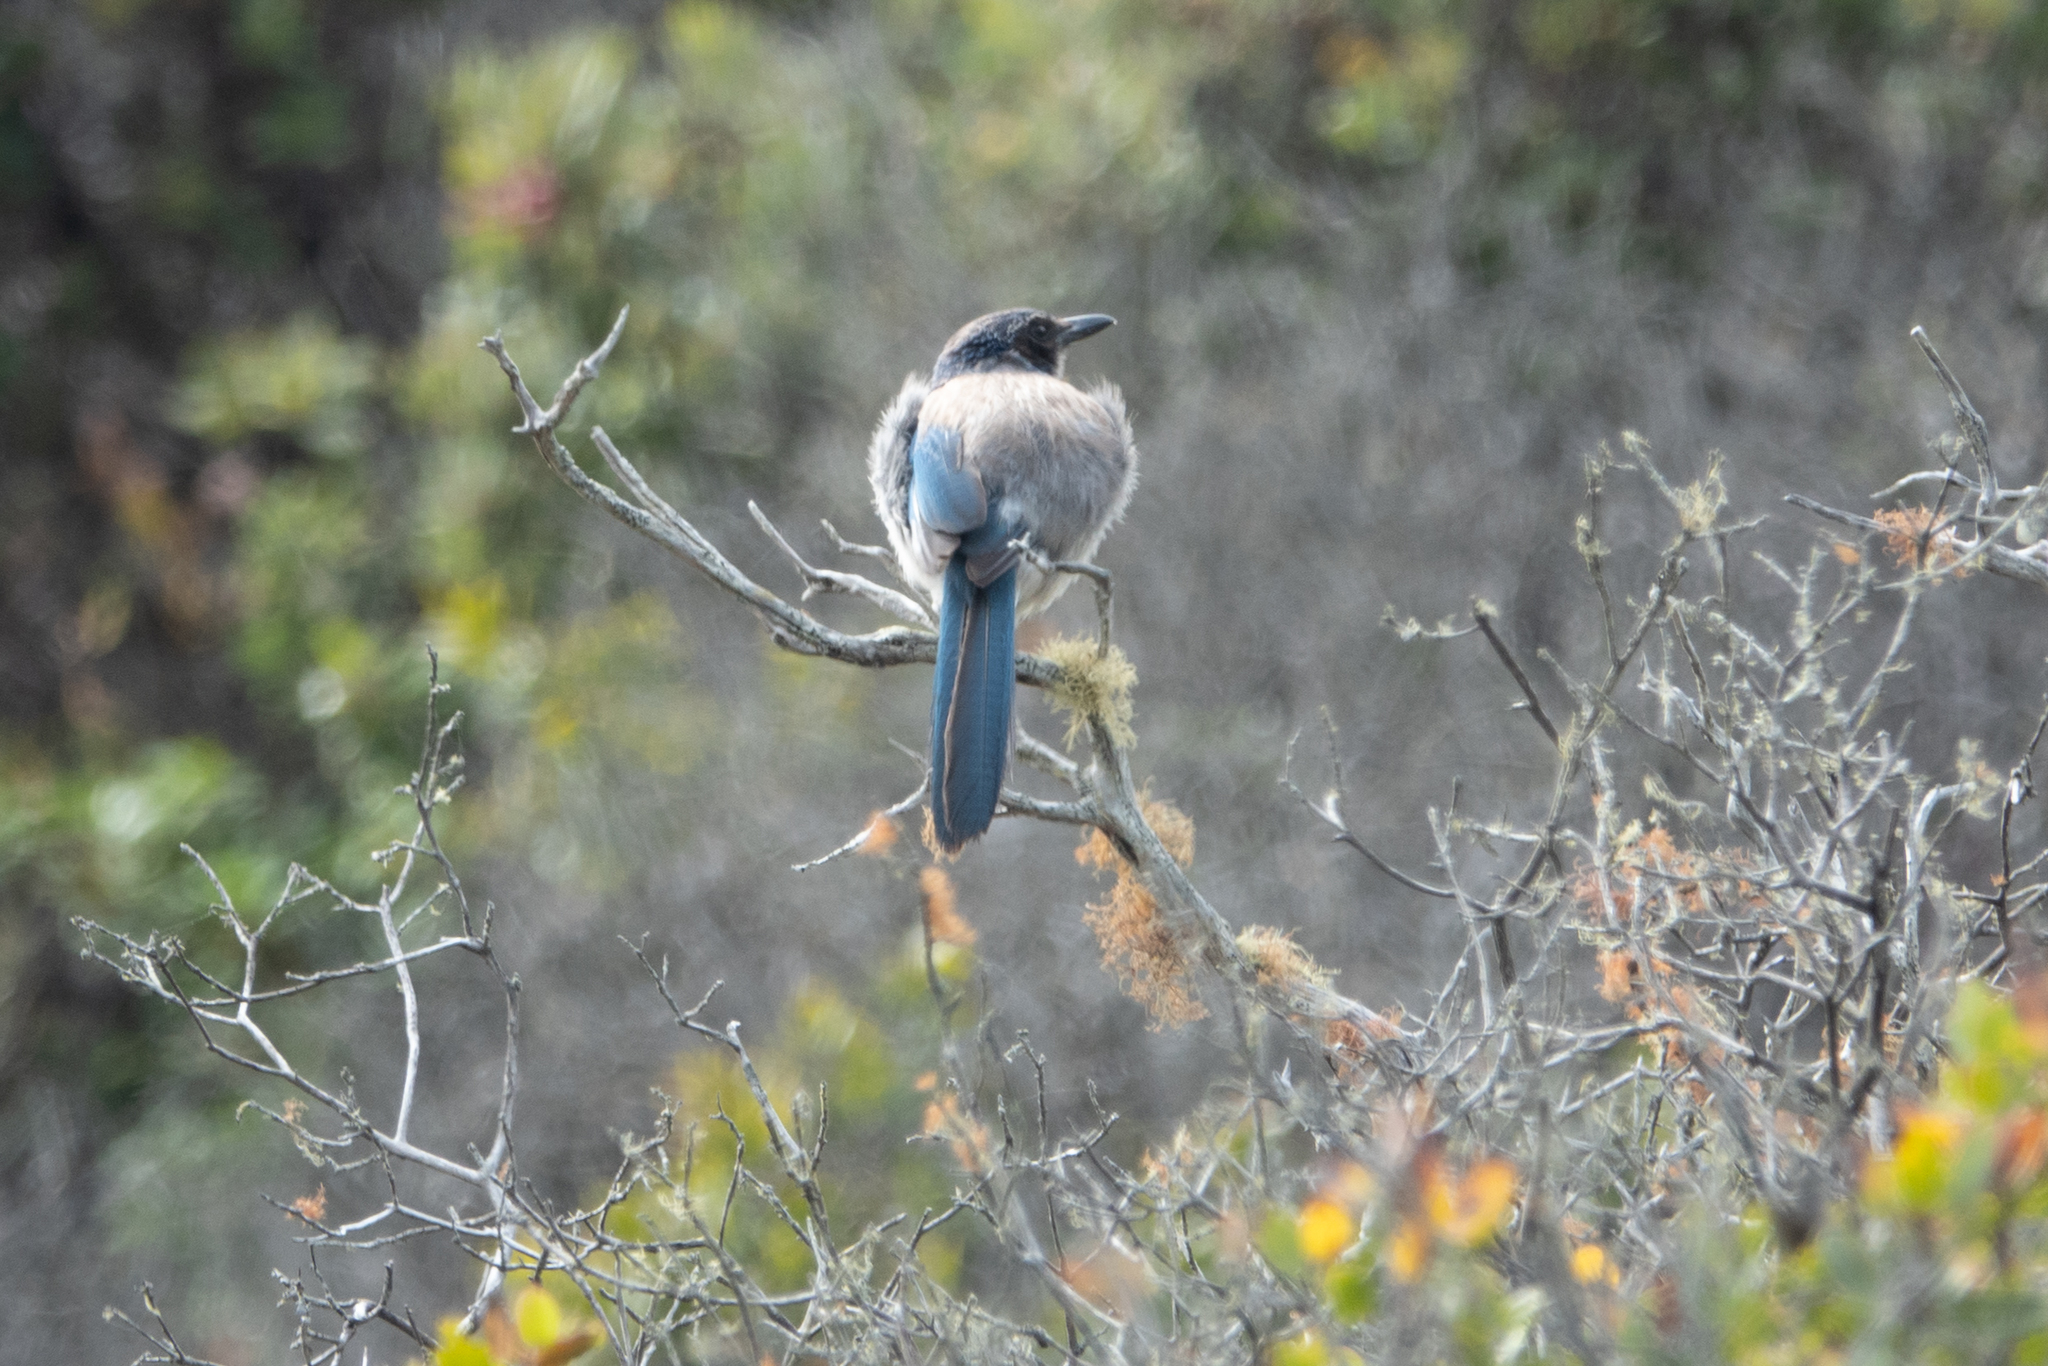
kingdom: Animalia
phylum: Chordata
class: Aves
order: Passeriformes
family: Corvidae
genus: Aphelocoma
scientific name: Aphelocoma californica
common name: California scrub-jay
